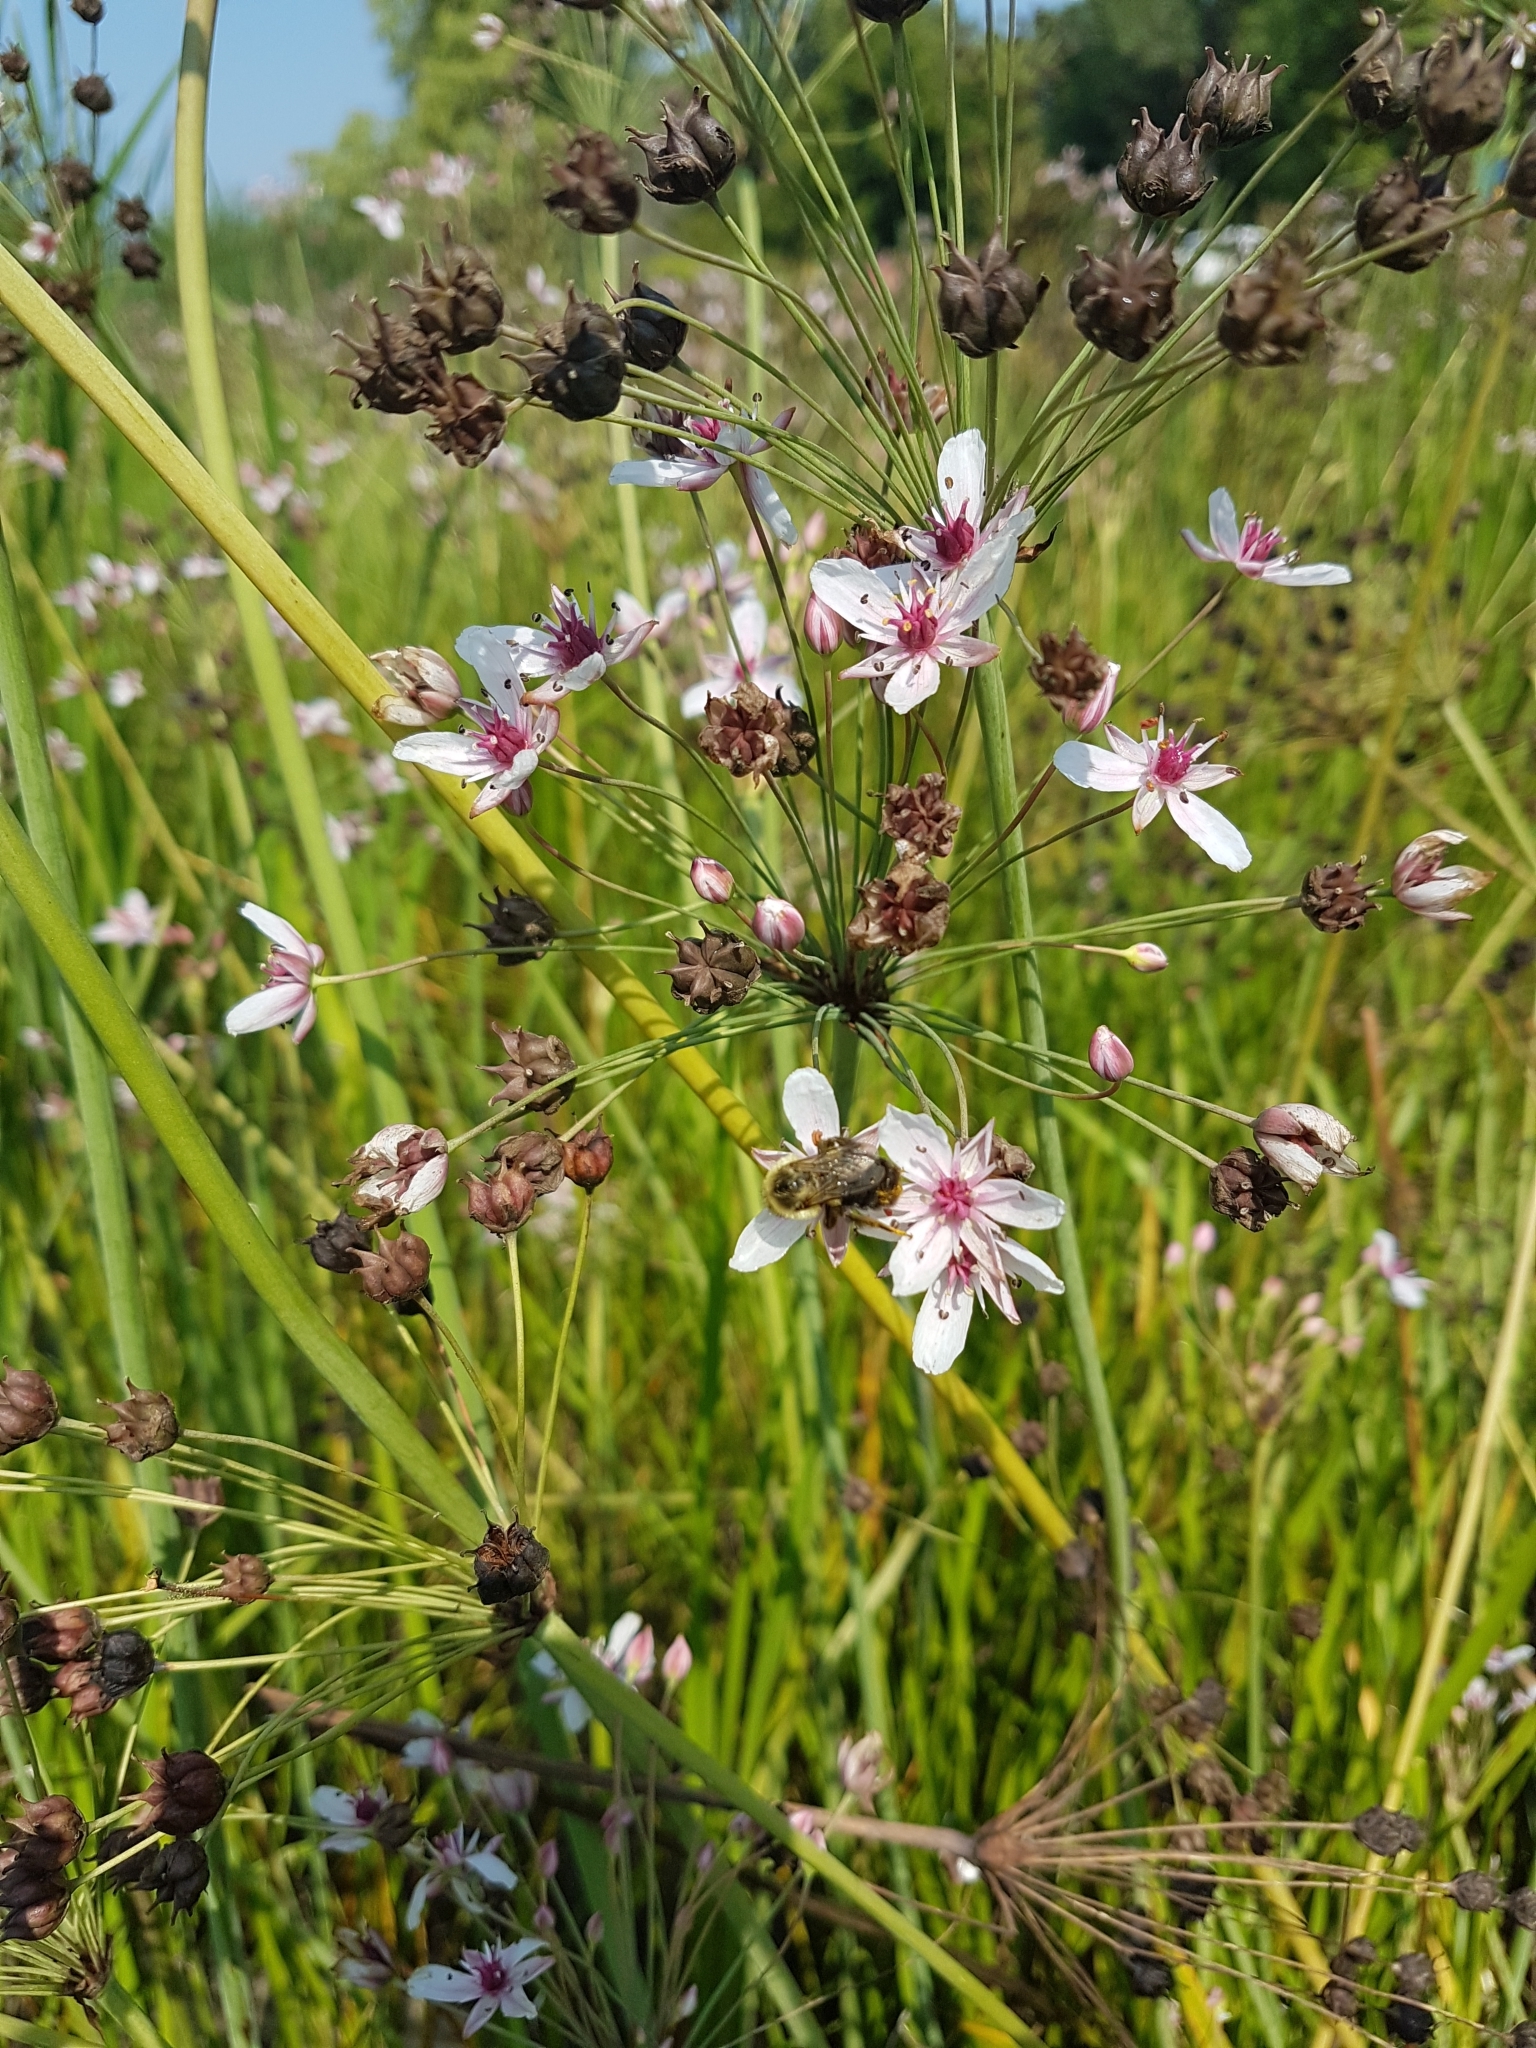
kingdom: Animalia
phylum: Arthropoda
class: Insecta
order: Hymenoptera
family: Apidae
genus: Bombus
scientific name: Bombus impatiens
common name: Common eastern bumble bee
